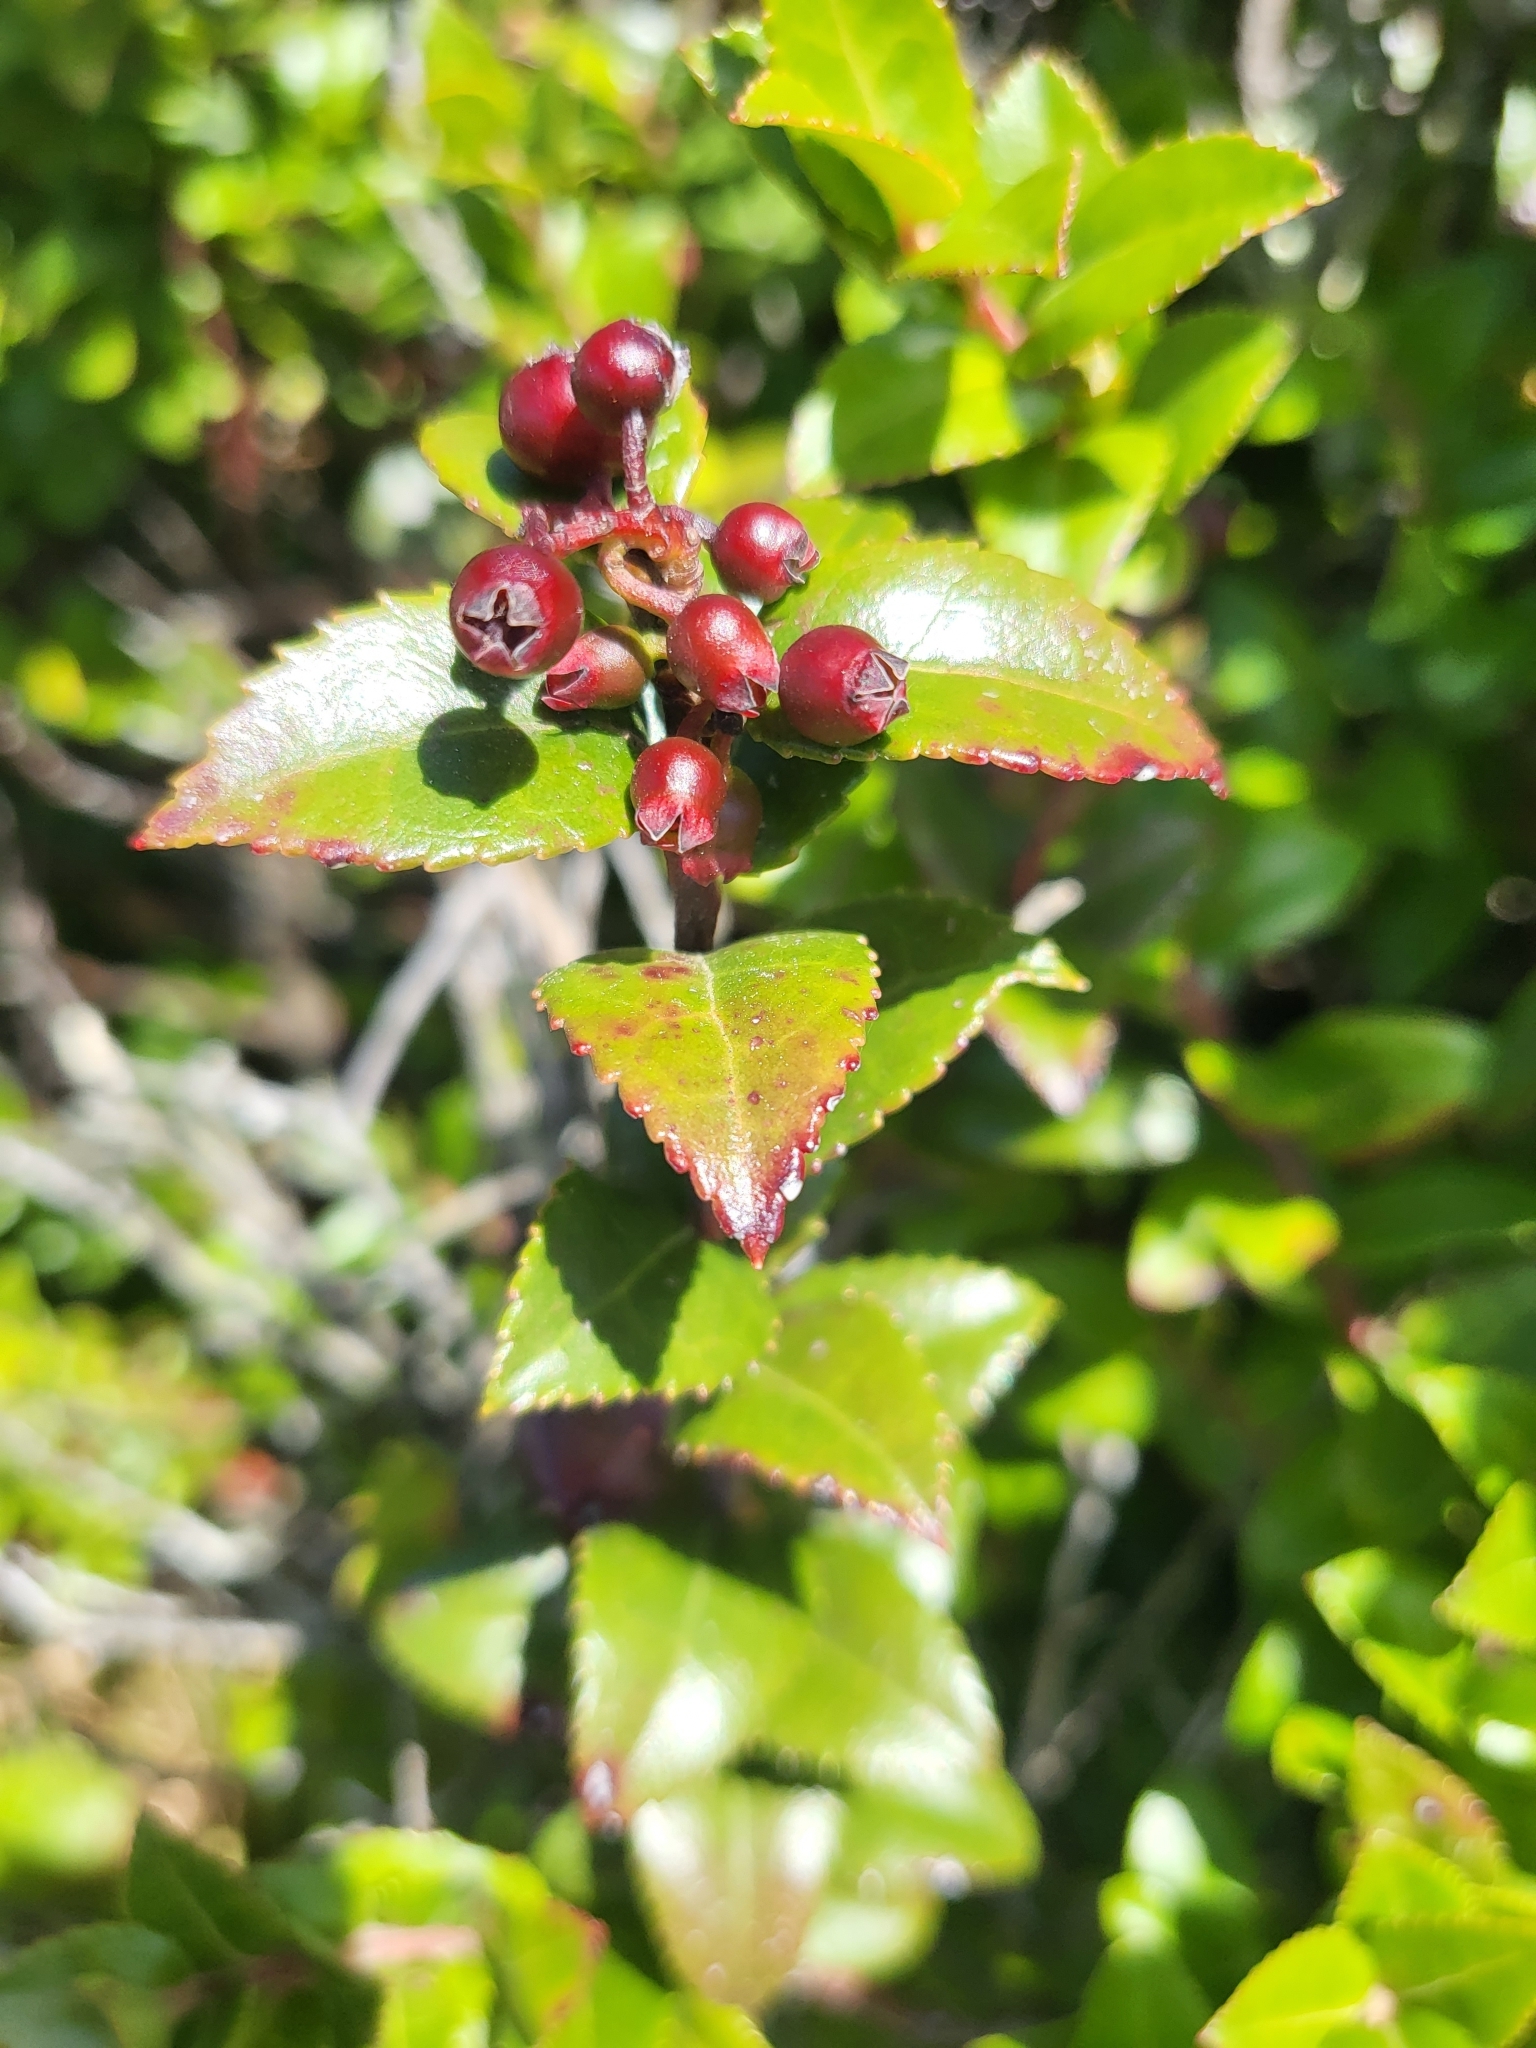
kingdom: Plantae
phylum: Tracheophyta
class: Magnoliopsida
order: Ericales
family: Ericaceae
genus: Vaccinium
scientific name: Vaccinium ovatum
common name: California-huckleberry
